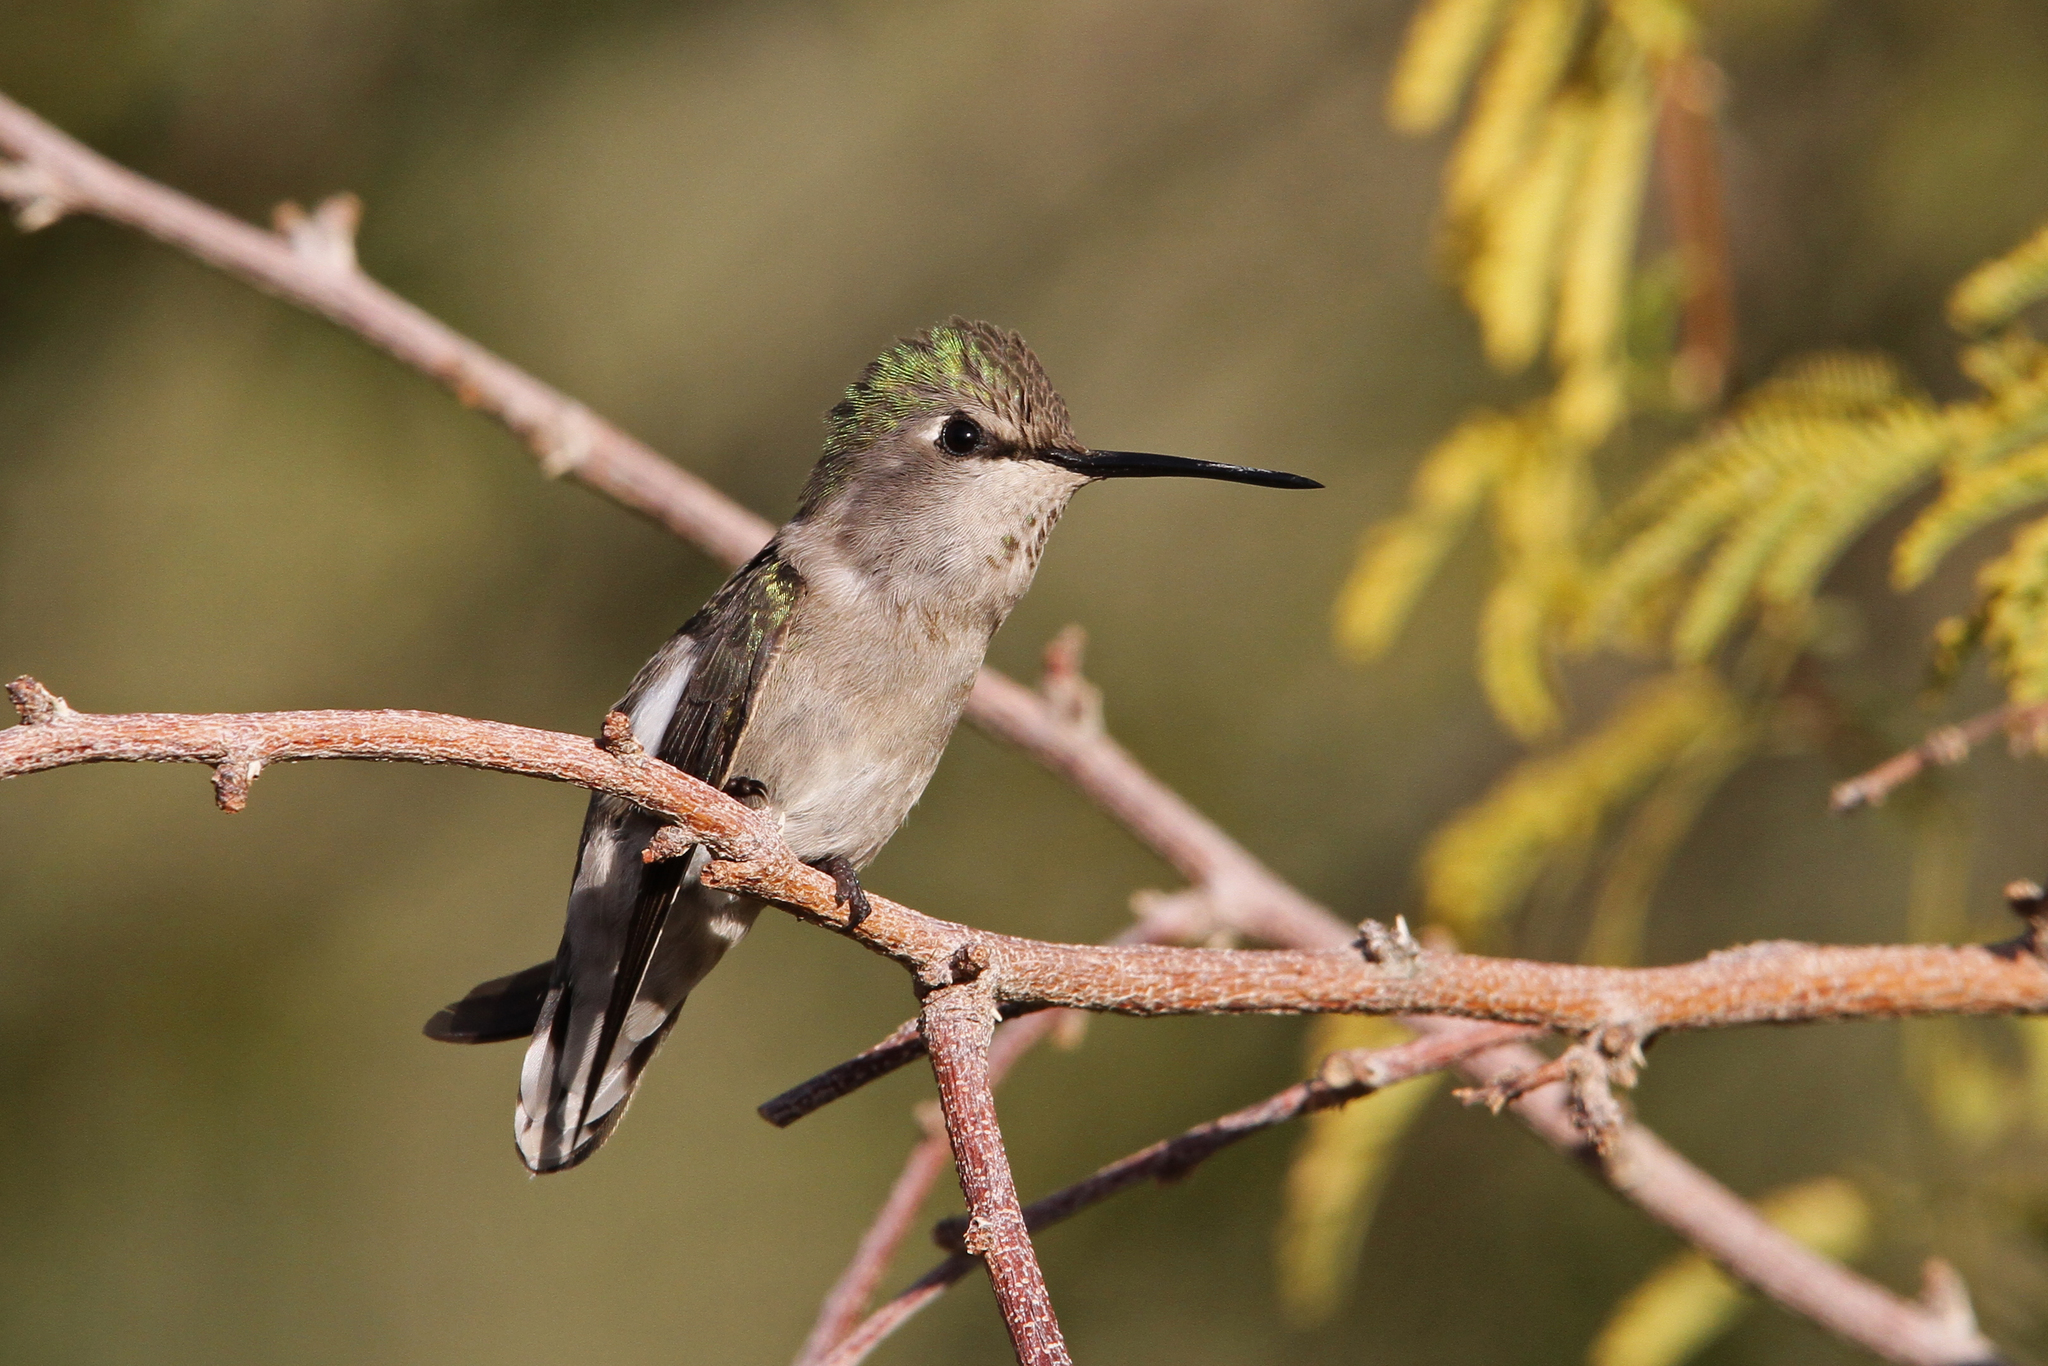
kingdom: Animalia
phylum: Chordata
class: Aves
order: Apodiformes
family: Trochilidae
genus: Calypte
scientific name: Calypte costae
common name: Costa's hummingbird
